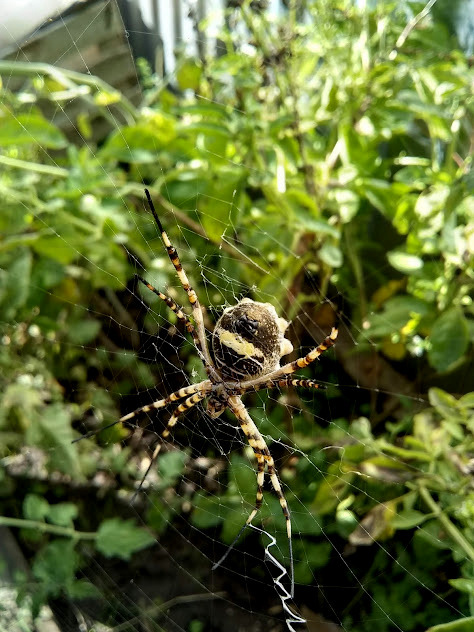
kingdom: Animalia
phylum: Arthropoda
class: Arachnida
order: Araneae
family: Araneidae
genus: Argiope
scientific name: Argiope argentata
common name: Orb weavers
